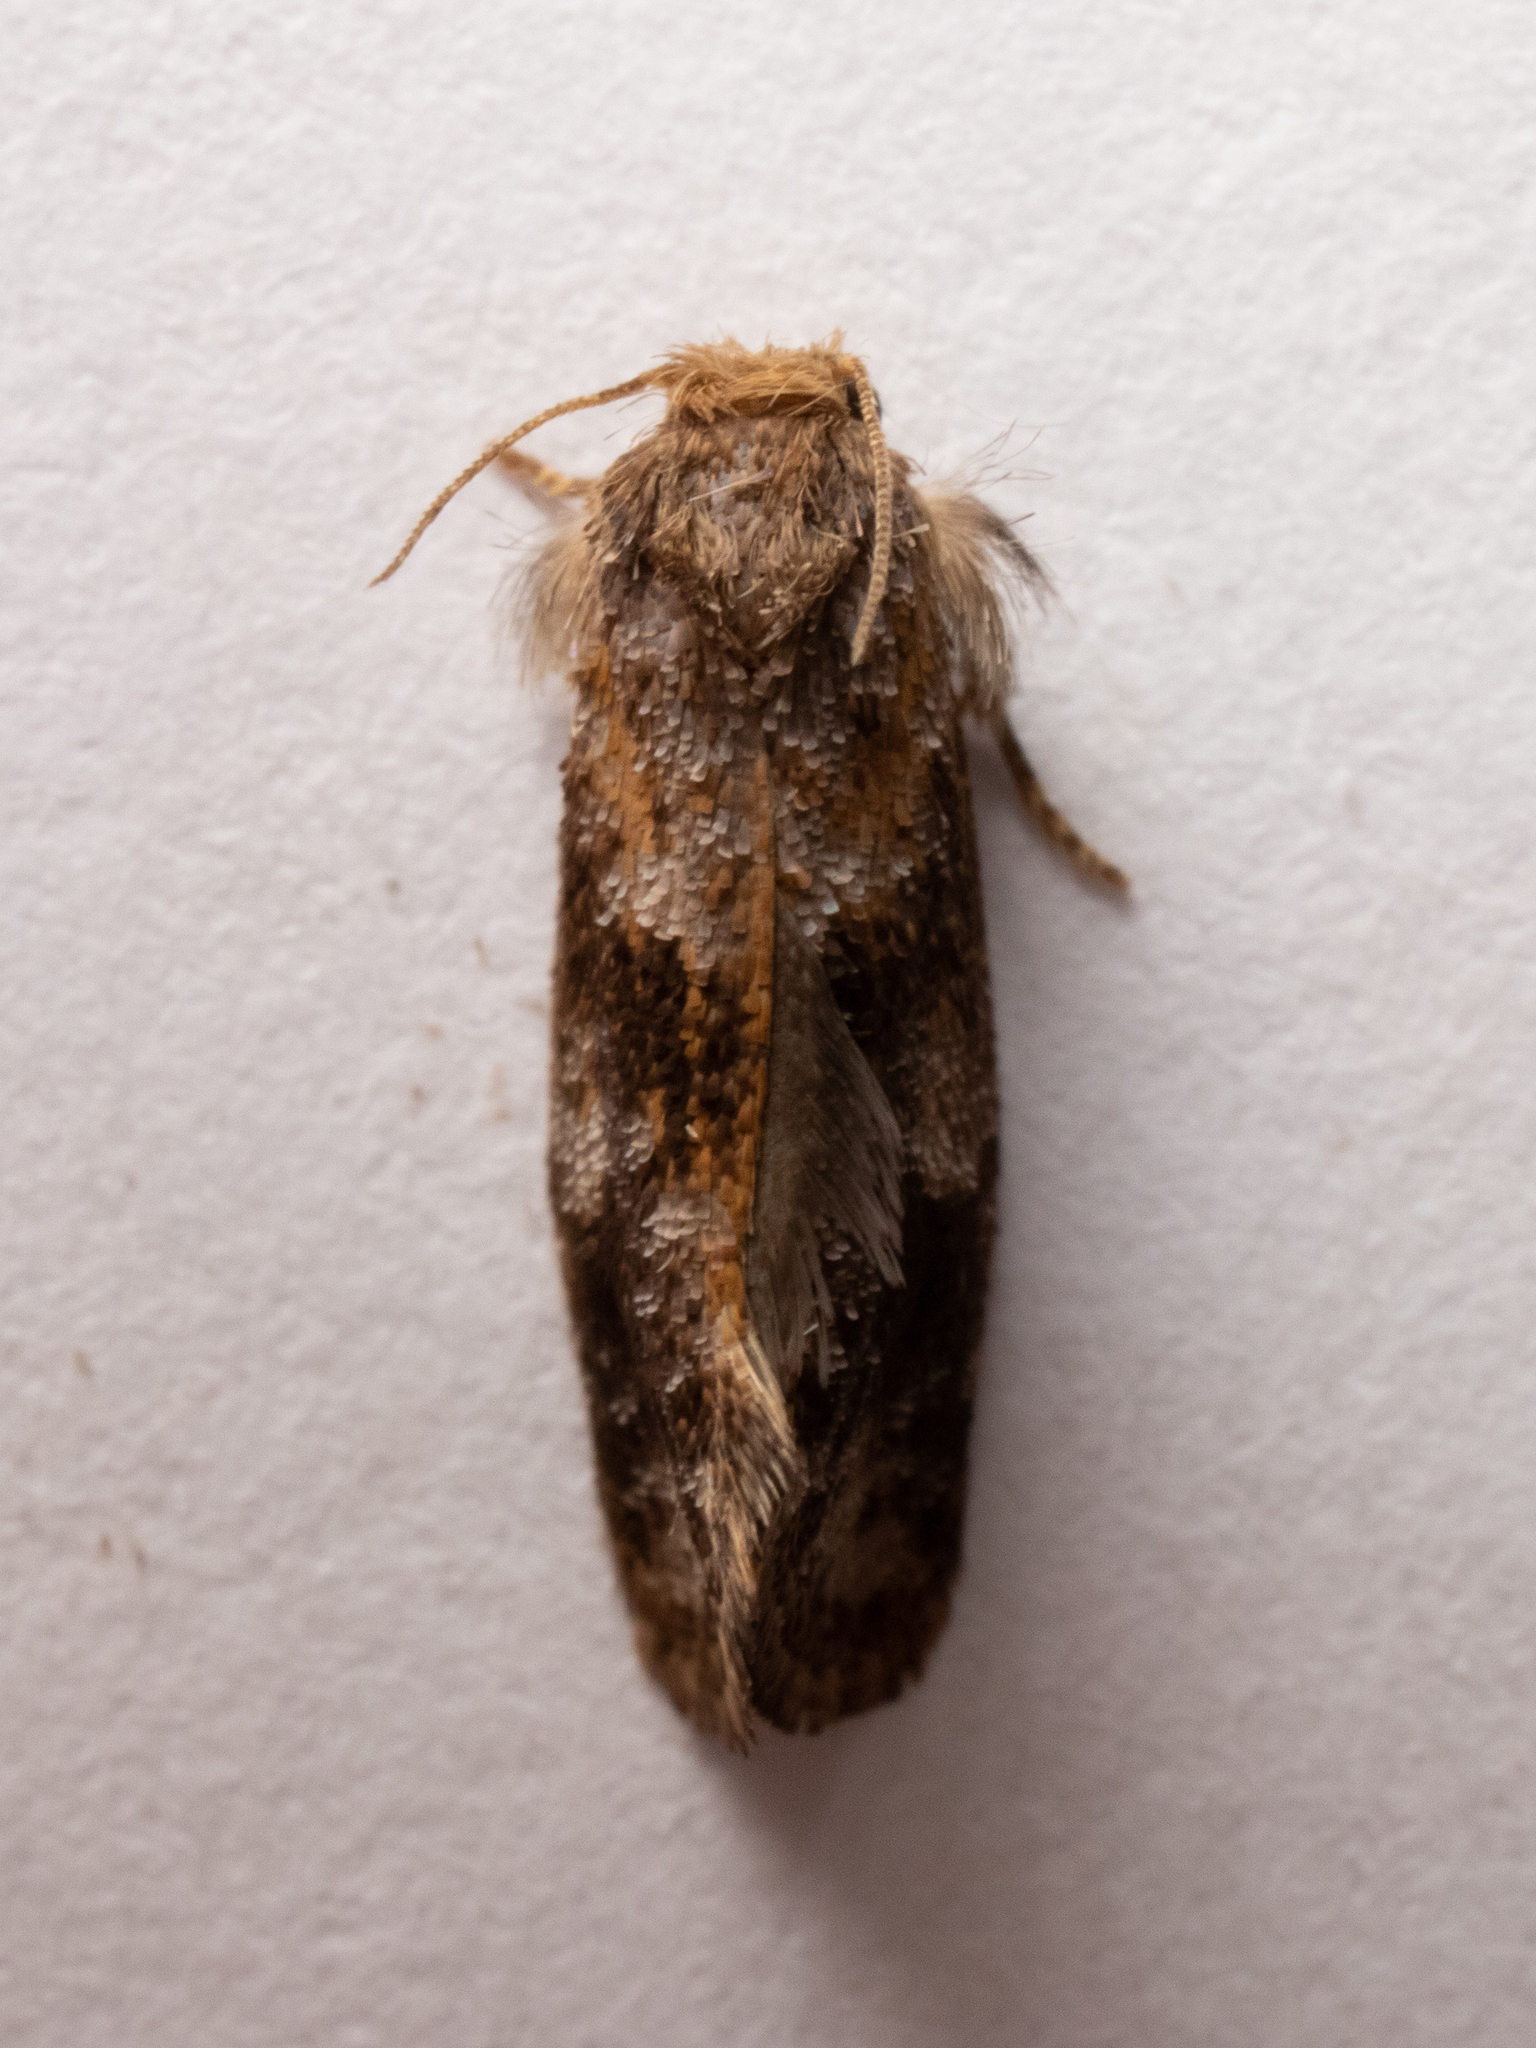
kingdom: Animalia
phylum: Arthropoda
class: Insecta
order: Lepidoptera
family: Tineidae
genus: Acrolophus
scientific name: Acrolophus panamae
